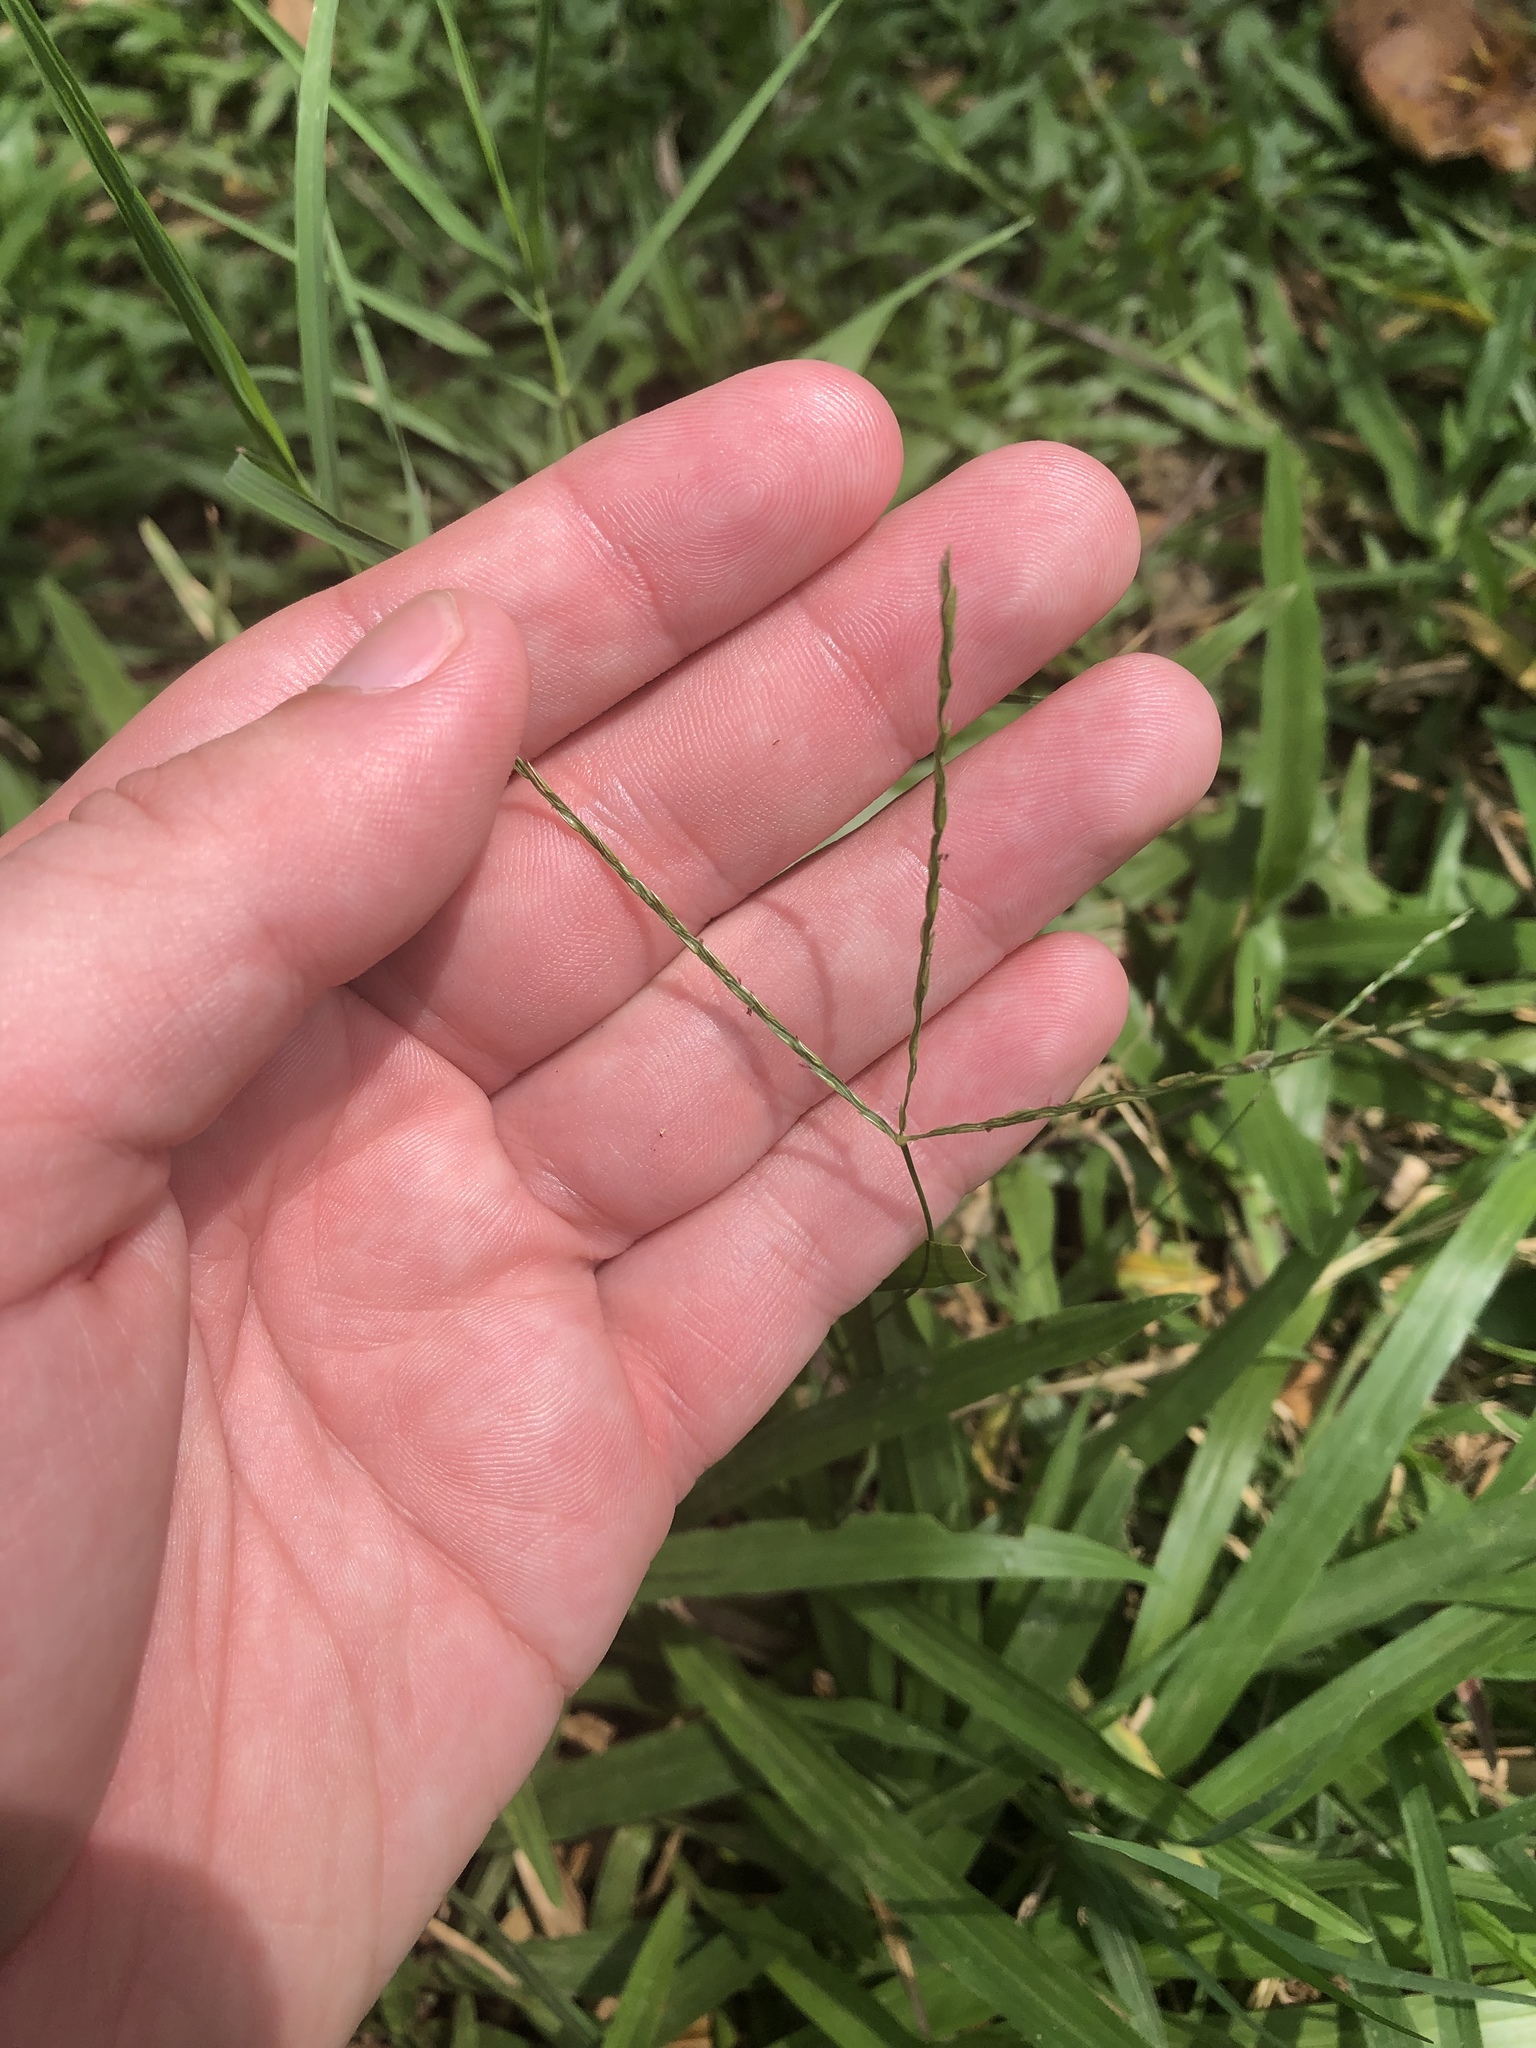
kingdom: Plantae
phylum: Tracheophyta
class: Liliopsida
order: Poales
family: Poaceae
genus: Cynodon
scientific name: Cynodon dactylon
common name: Bermuda grass
